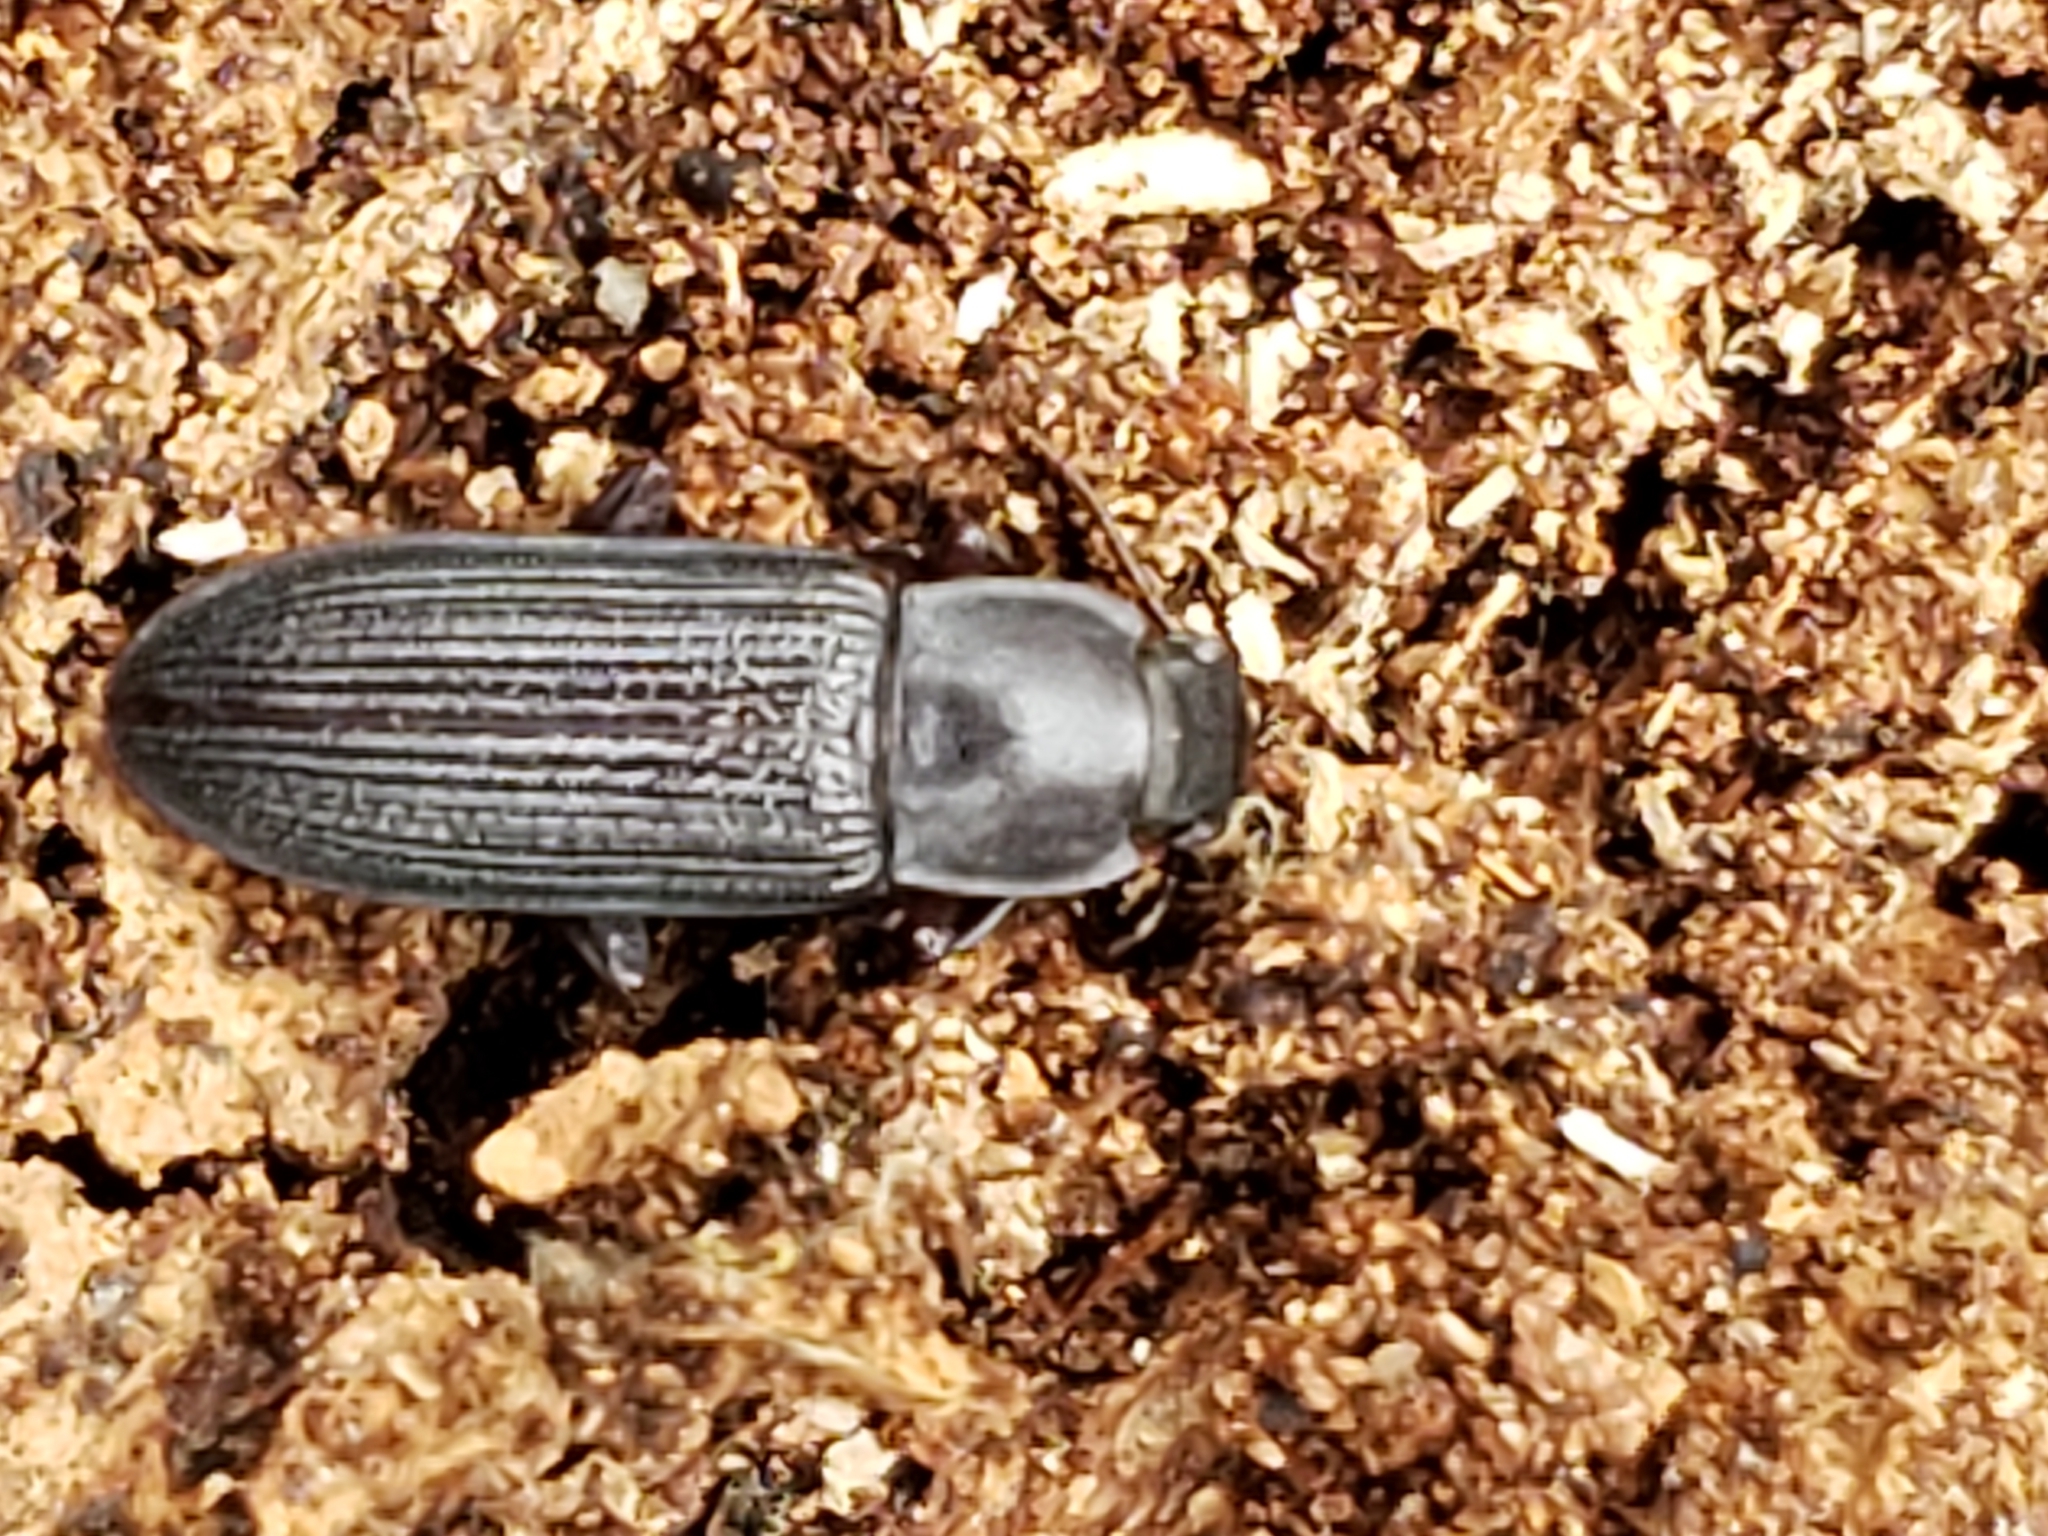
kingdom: Animalia
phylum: Arthropoda
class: Insecta
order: Coleoptera
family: Tenebrionidae
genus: Idiobates
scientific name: Idiobates castaneus
